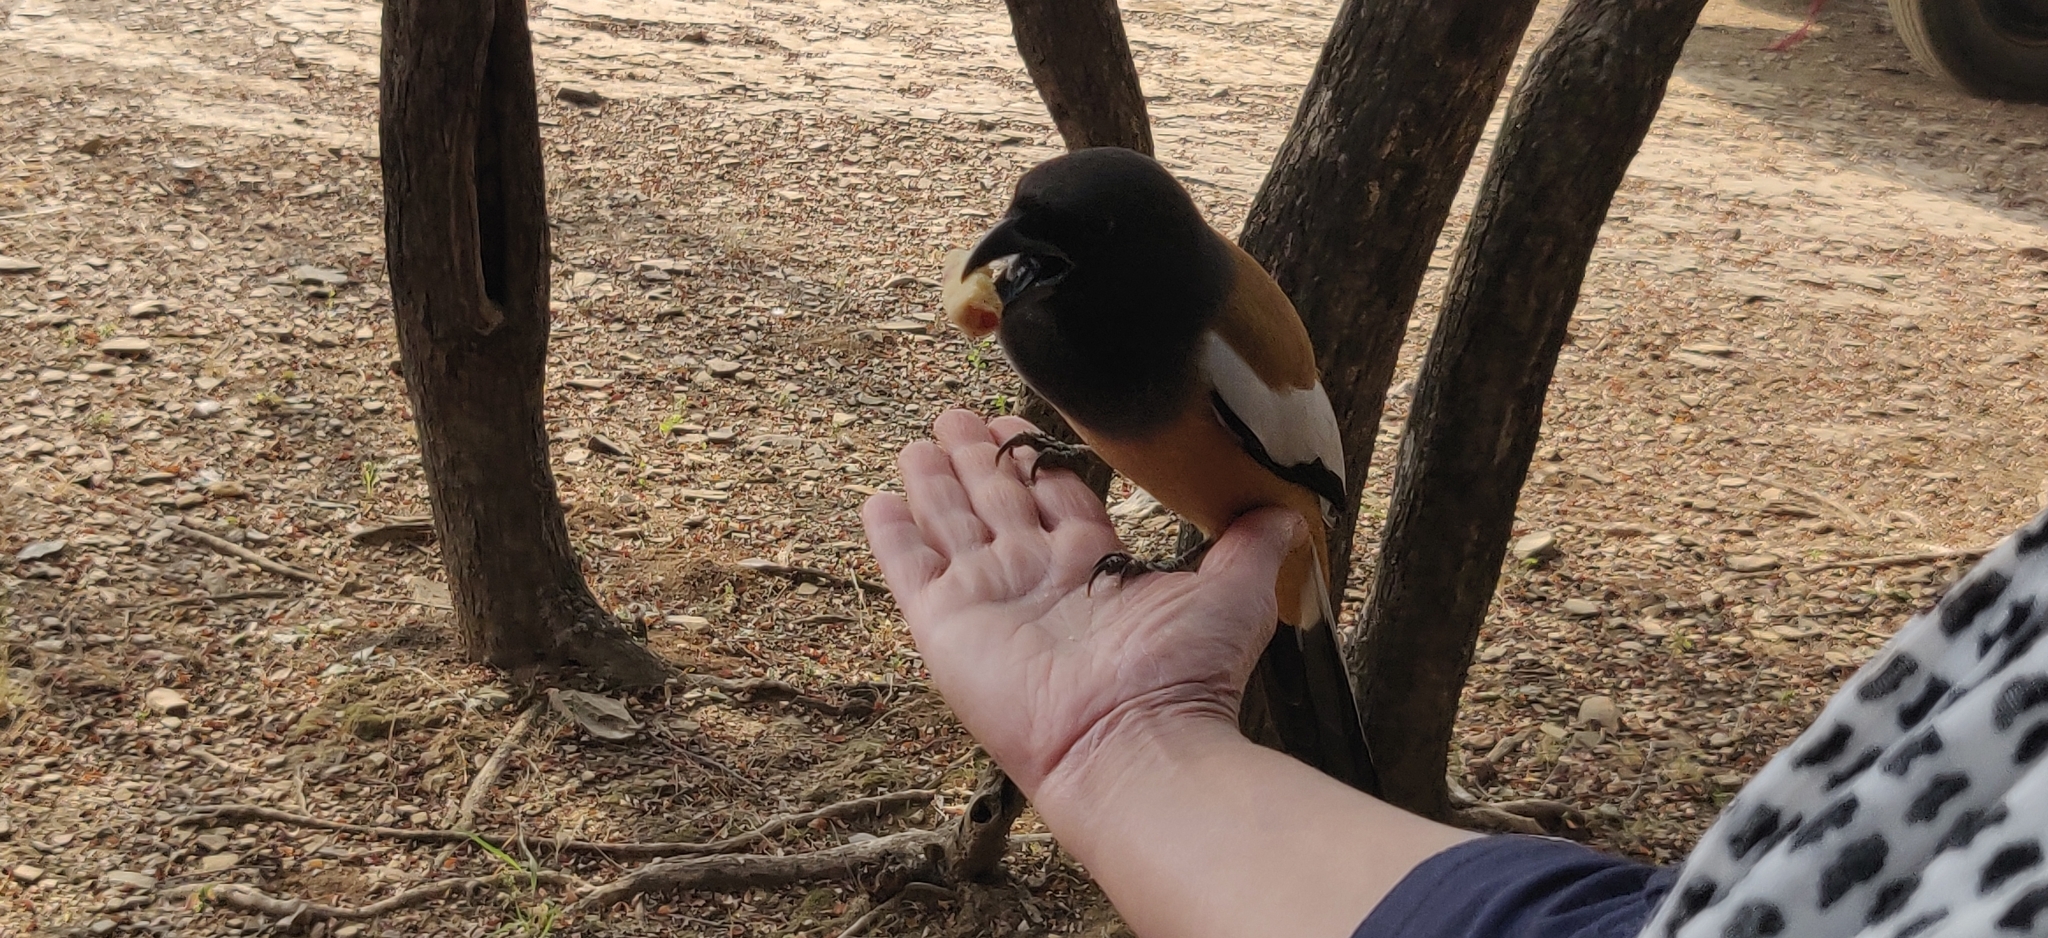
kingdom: Animalia
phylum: Chordata
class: Aves
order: Passeriformes
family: Corvidae
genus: Dendrocitta
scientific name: Dendrocitta vagabunda
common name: Rufous treepie
